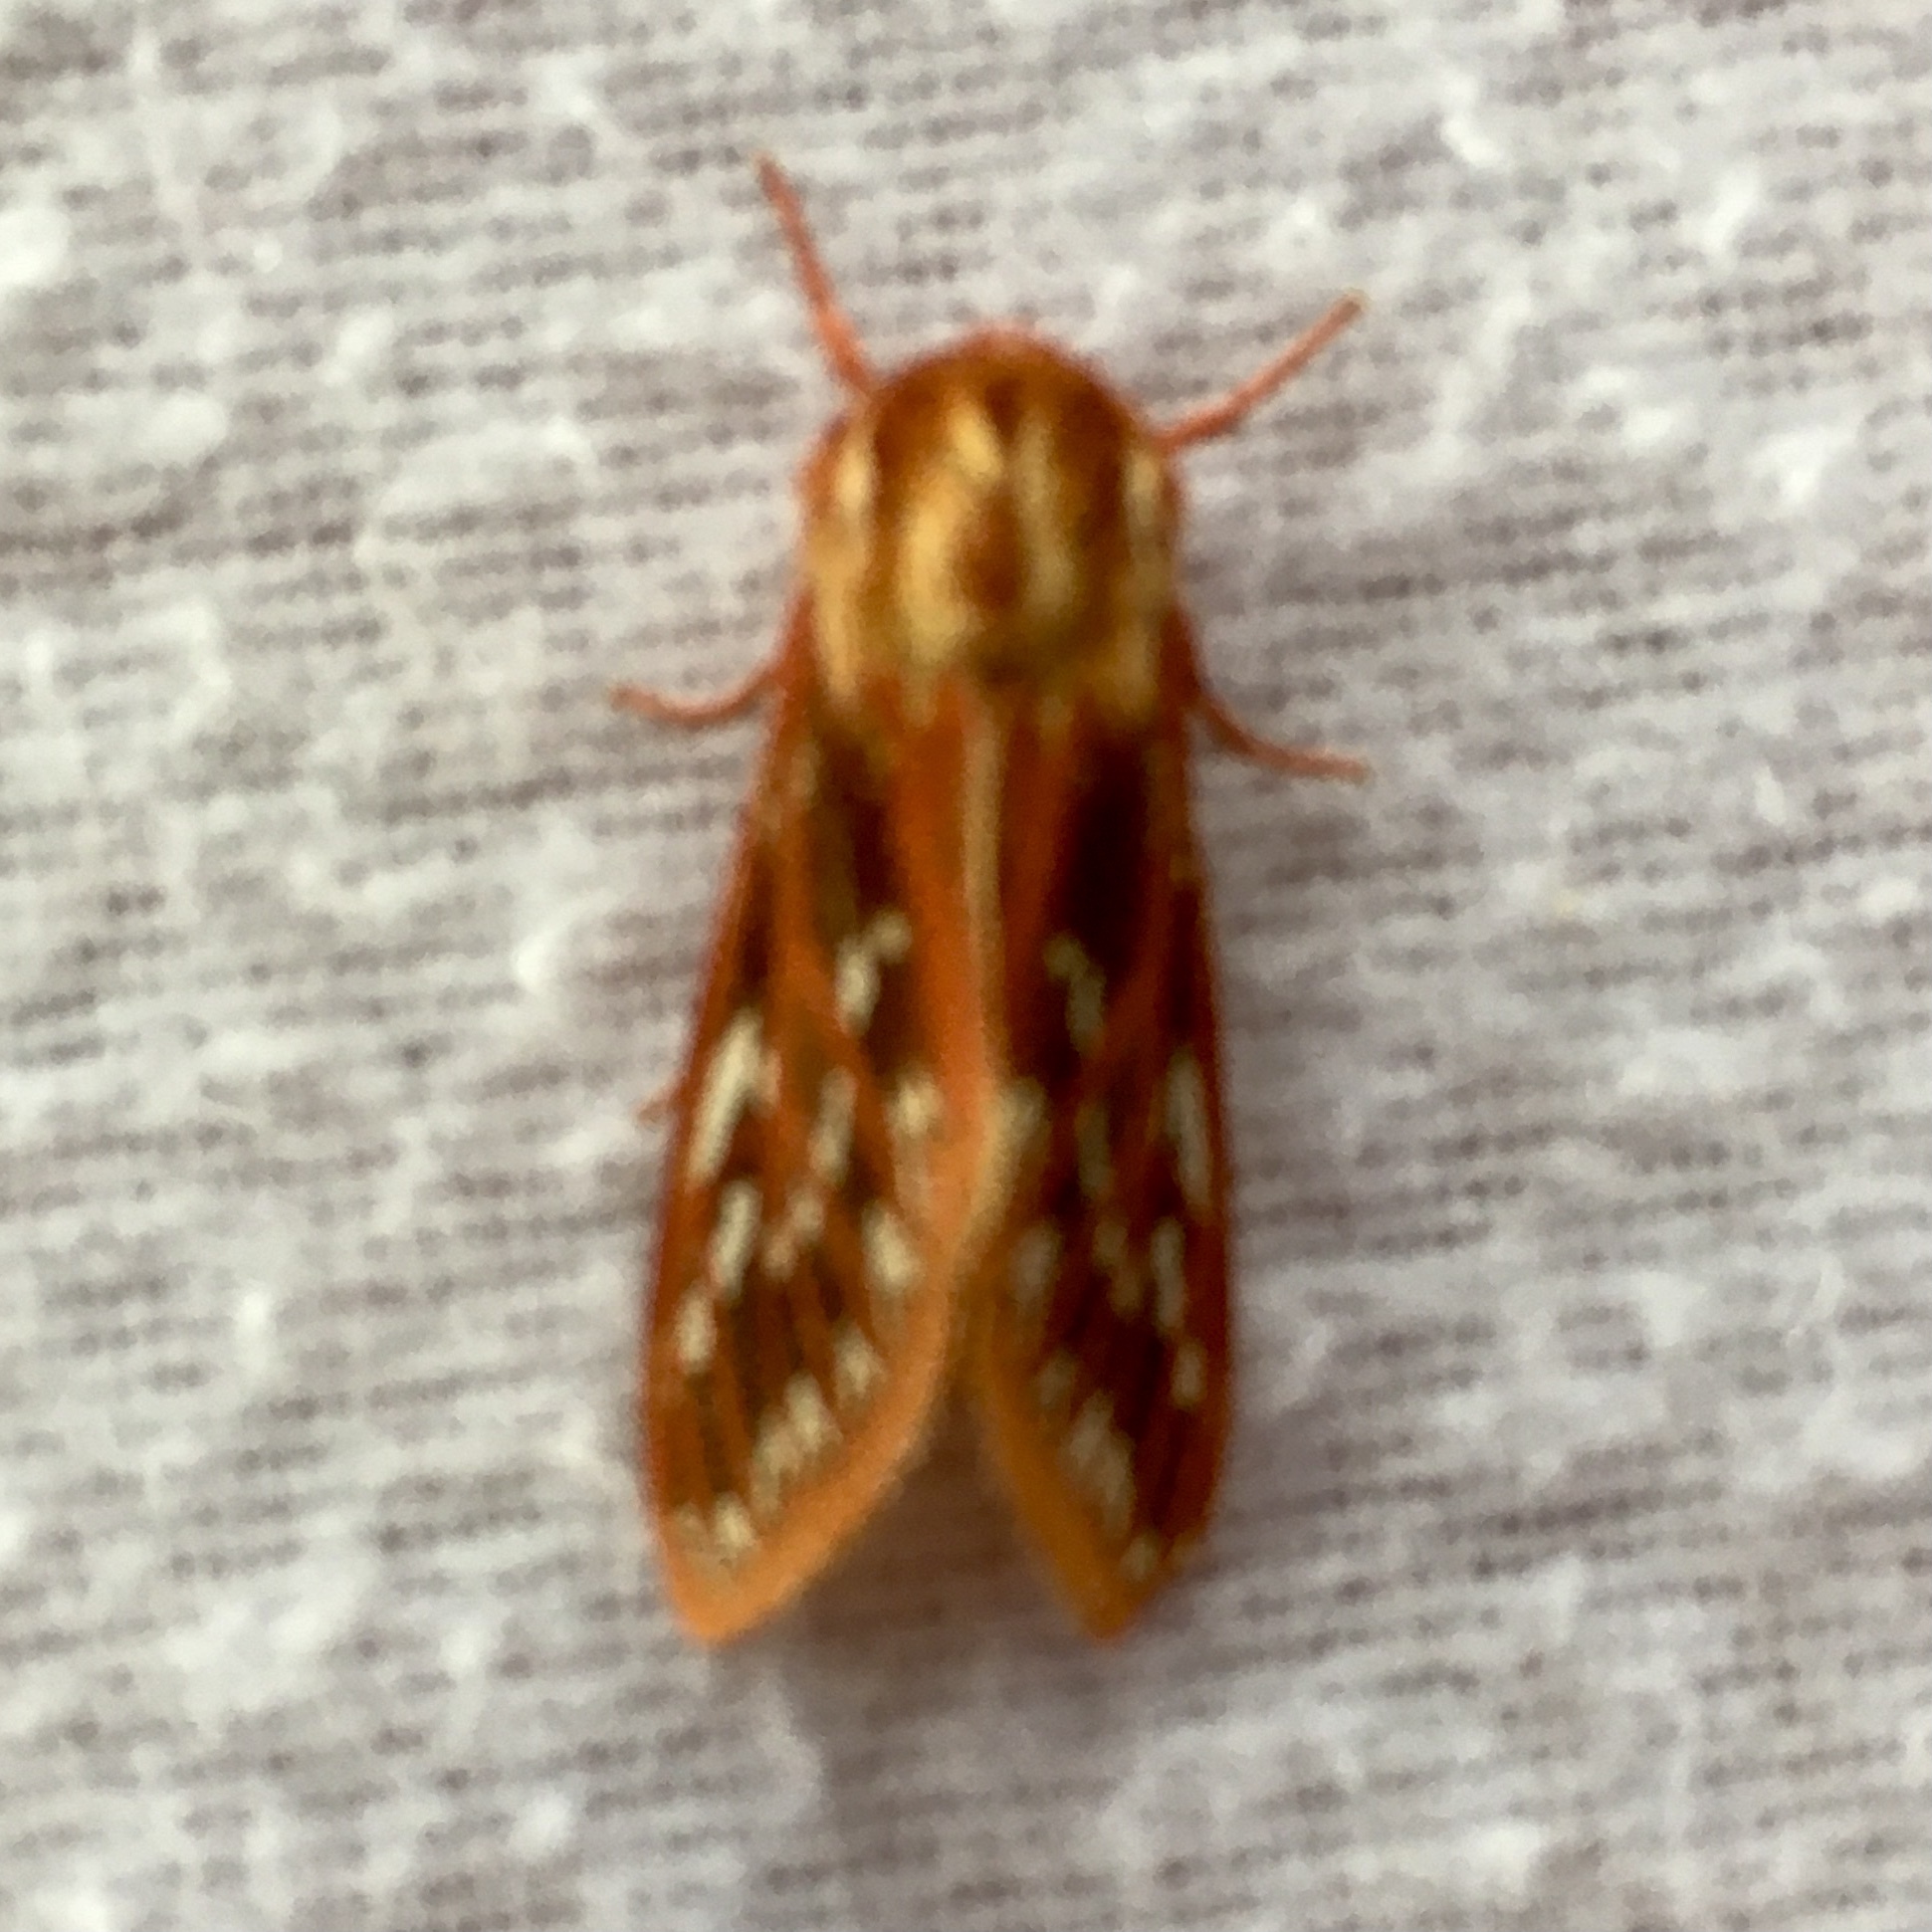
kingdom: Animalia
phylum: Arthropoda
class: Insecta
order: Lepidoptera
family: Erebidae
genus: Lophocampa
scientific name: Lophocampa roseata
